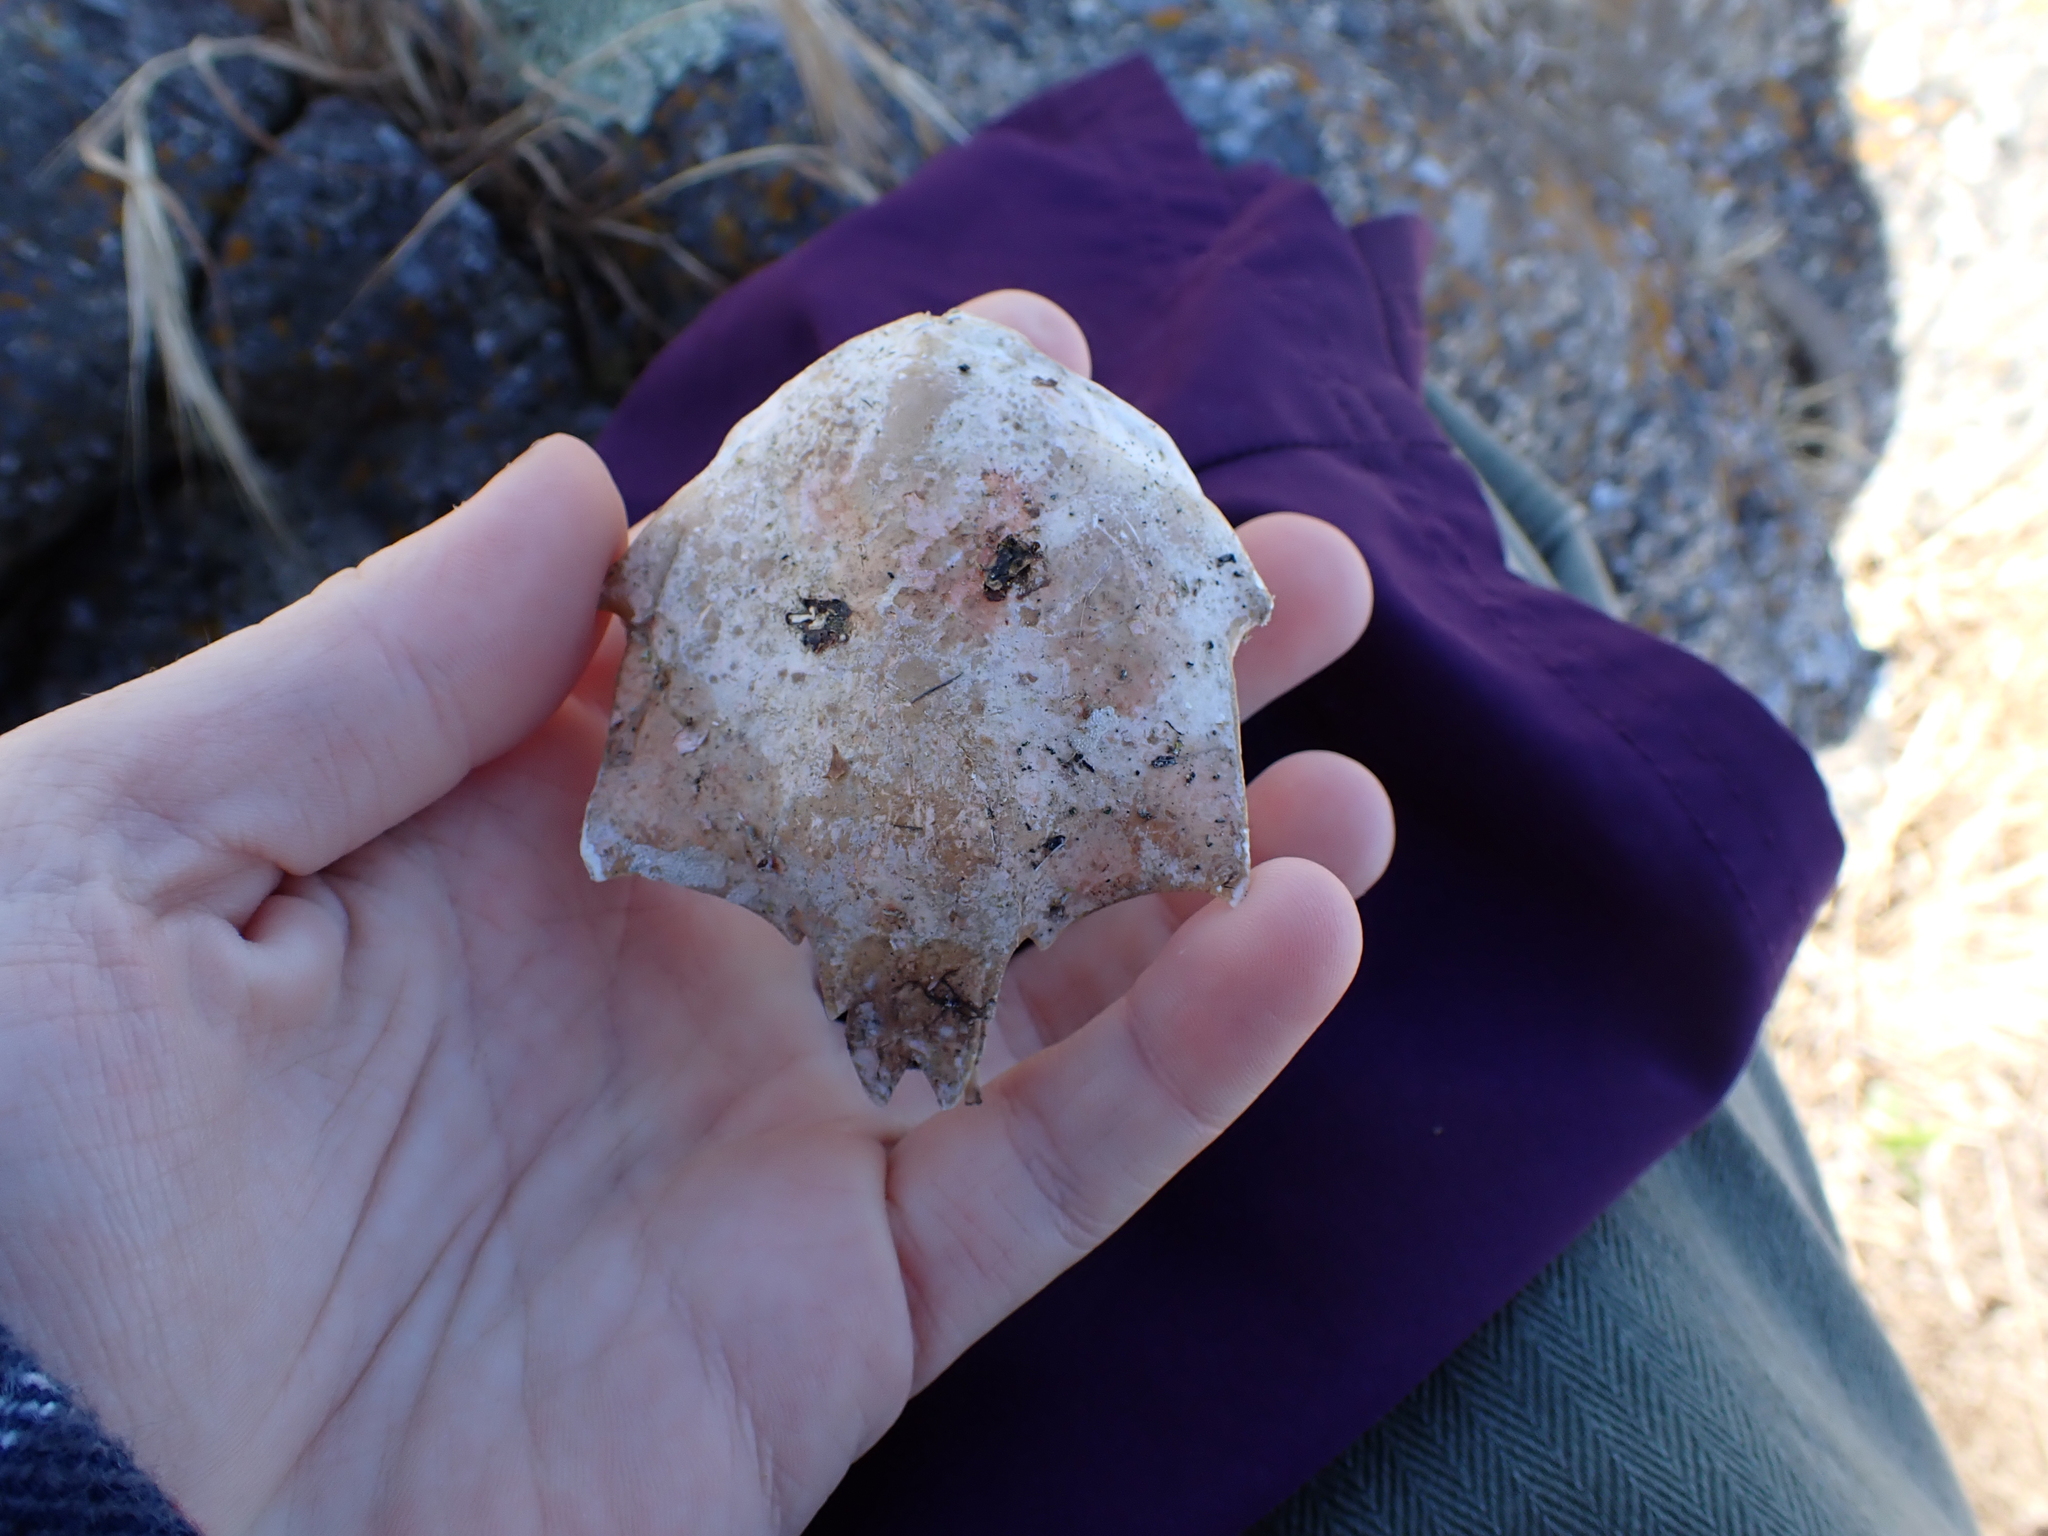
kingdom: Animalia
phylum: Arthropoda
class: Malacostraca
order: Decapoda
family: Epialtidae
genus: Pugettia
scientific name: Pugettia producta
